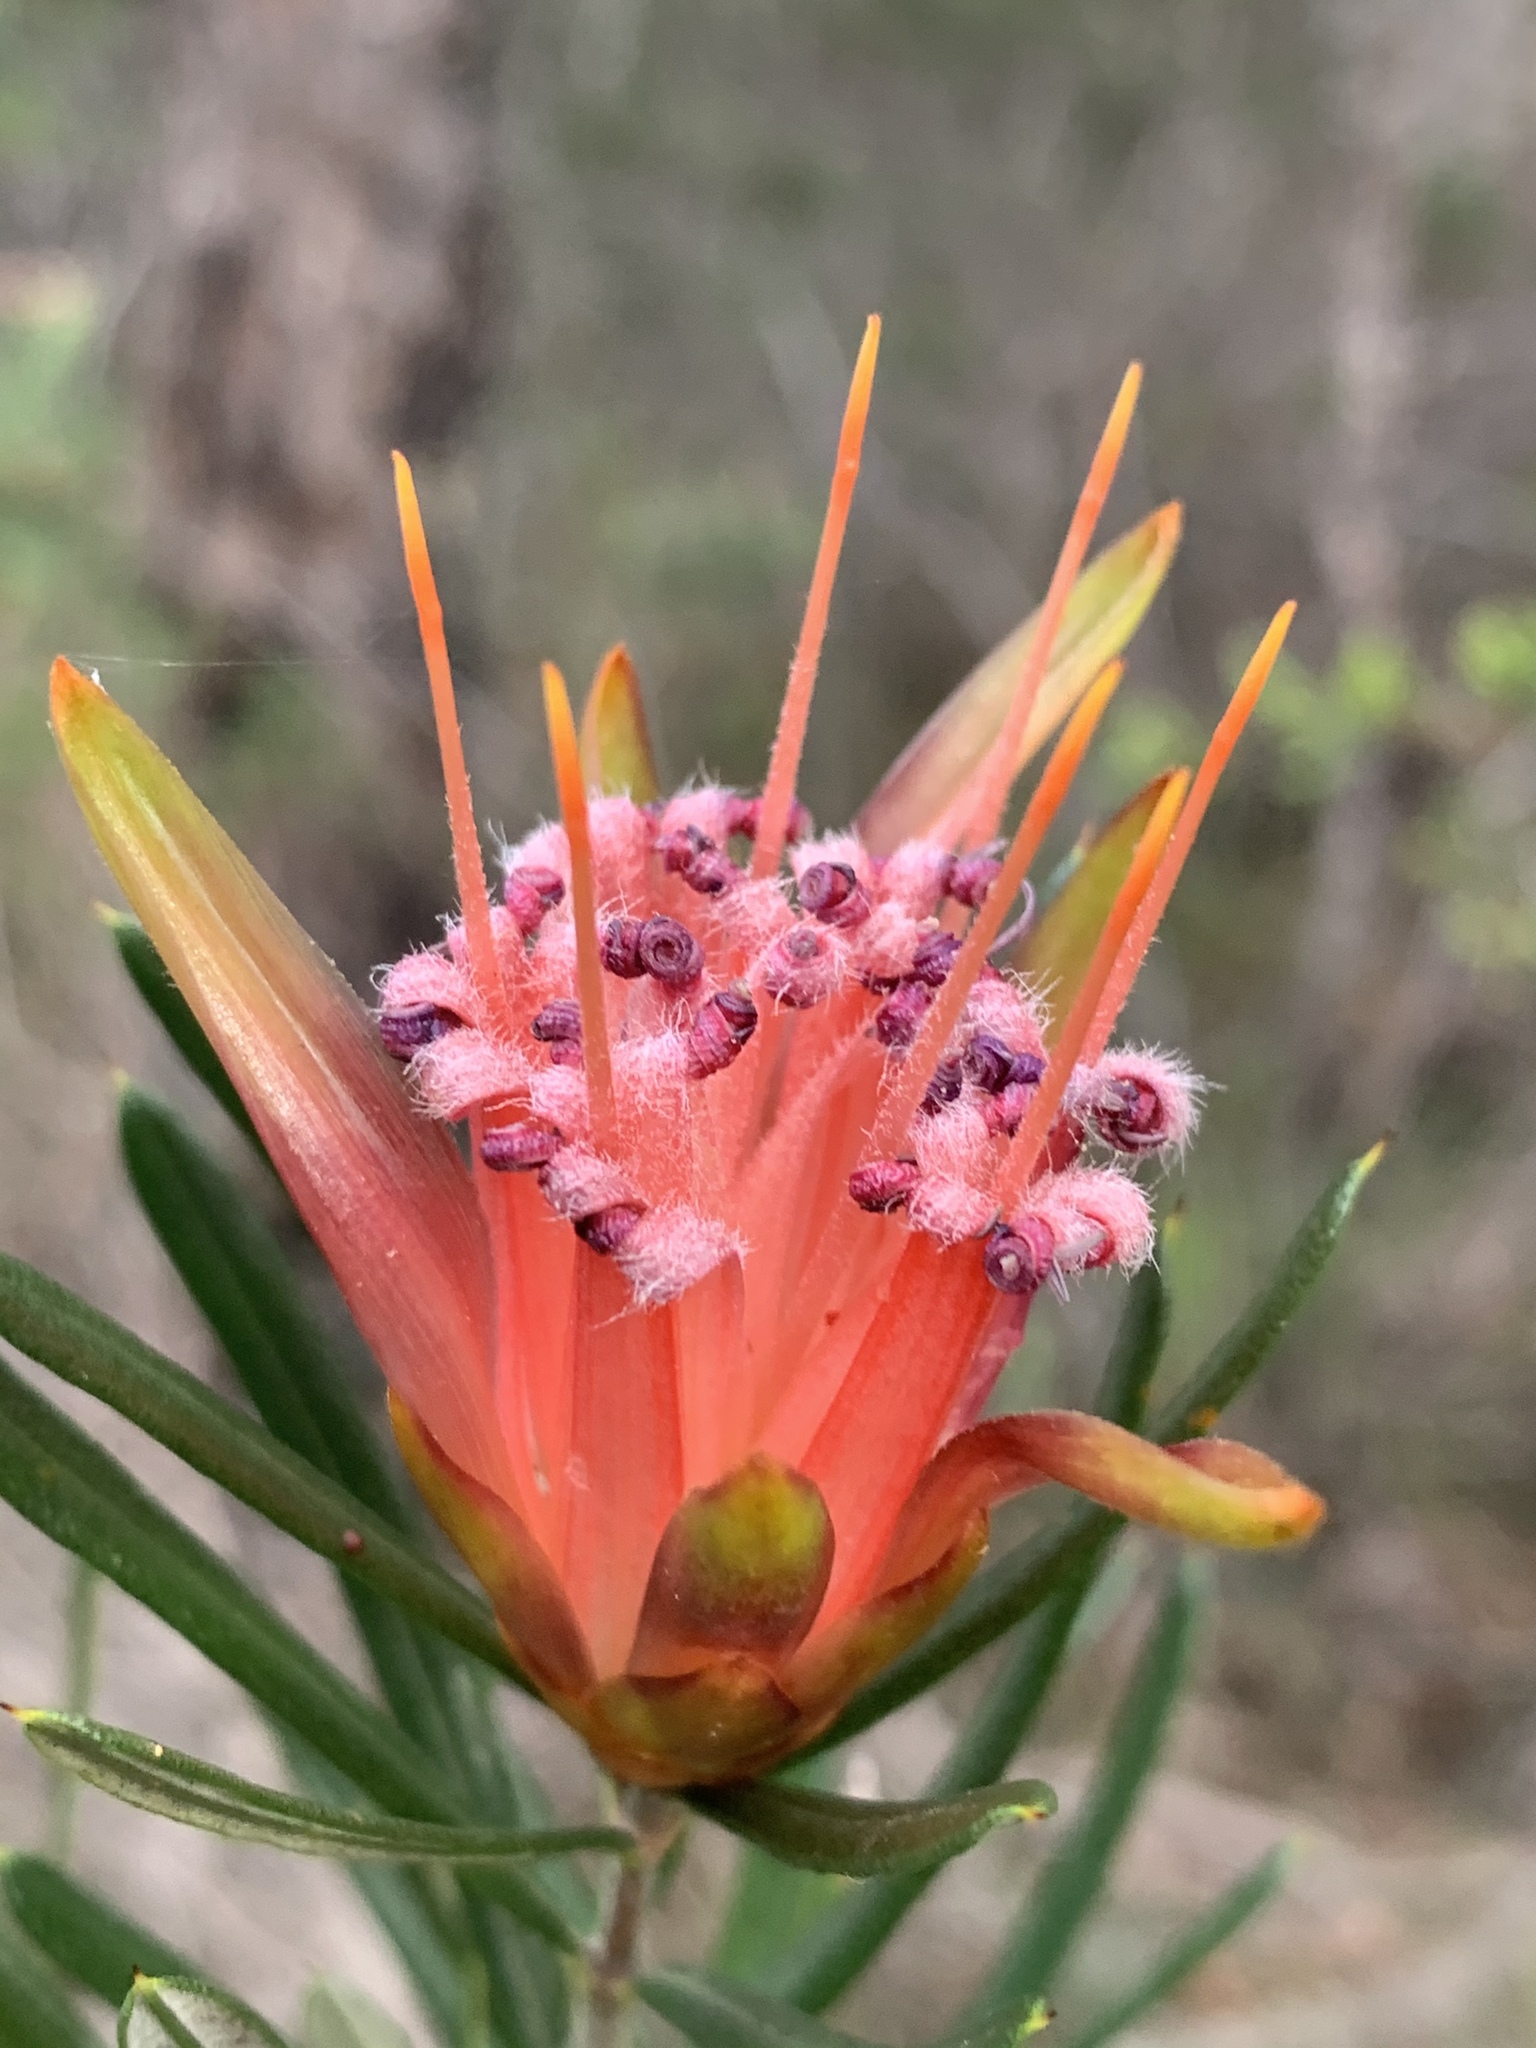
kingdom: Plantae
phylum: Tracheophyta
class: Magnoliopsida
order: Proteales
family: Proteaceae
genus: Lambertia
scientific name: Lambertia formosa
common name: Mountain-devil
